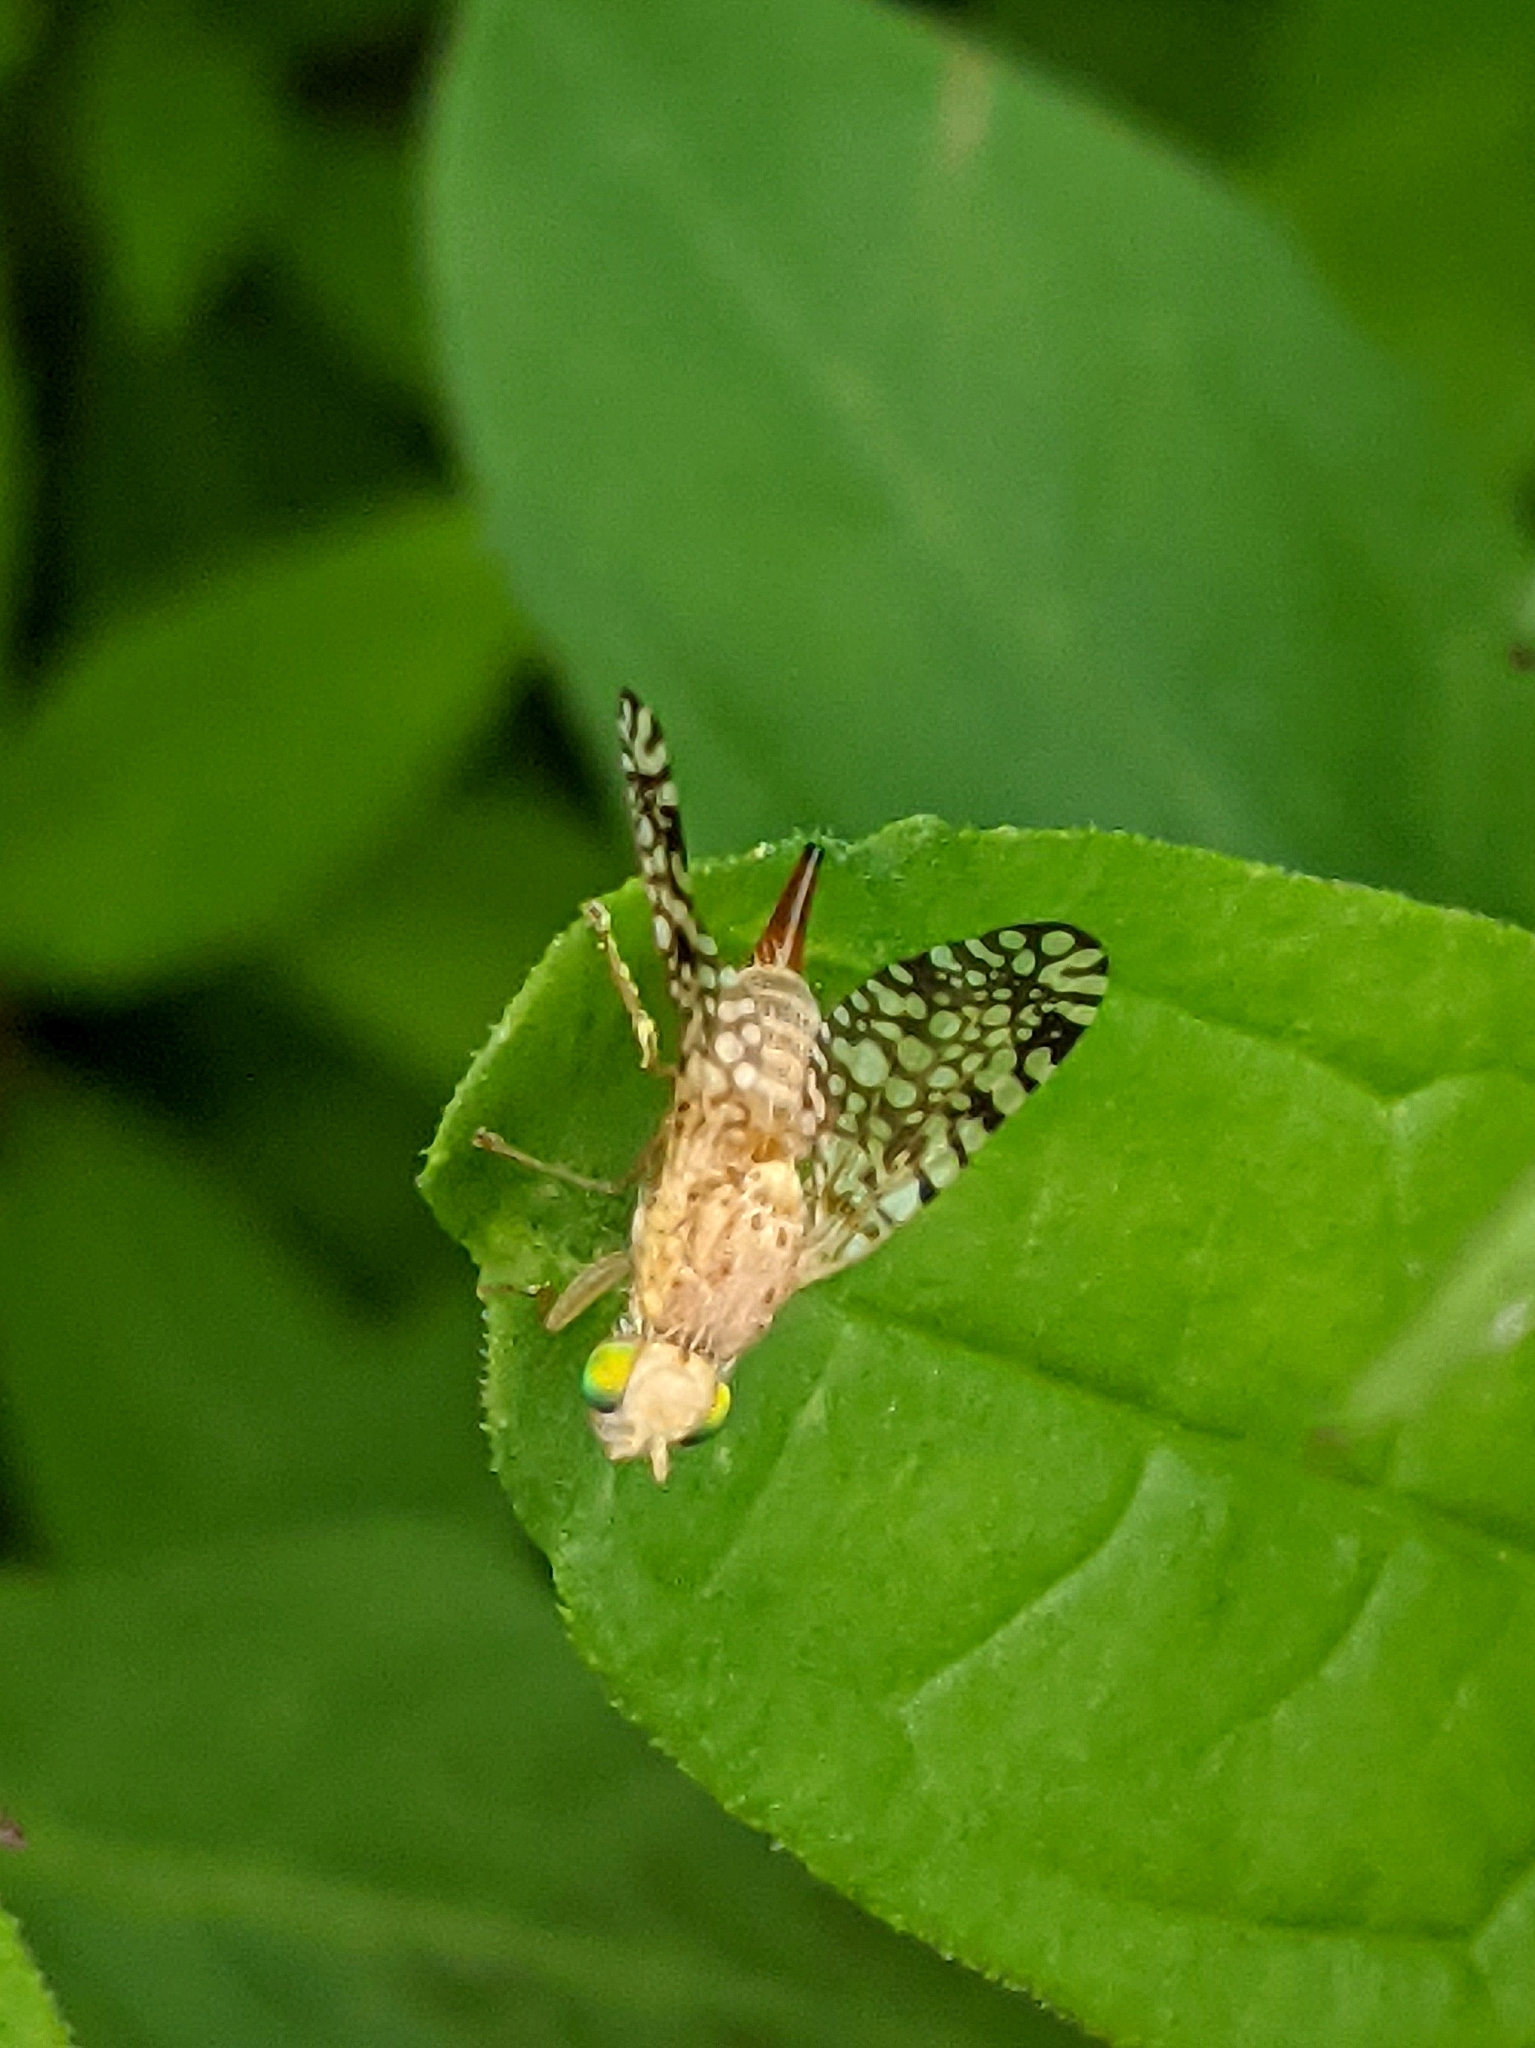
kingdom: Animalia
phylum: Arthropoda
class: Insecta
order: Diptera
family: Tephritidae
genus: Euaresta
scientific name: Euaresta aequalis
